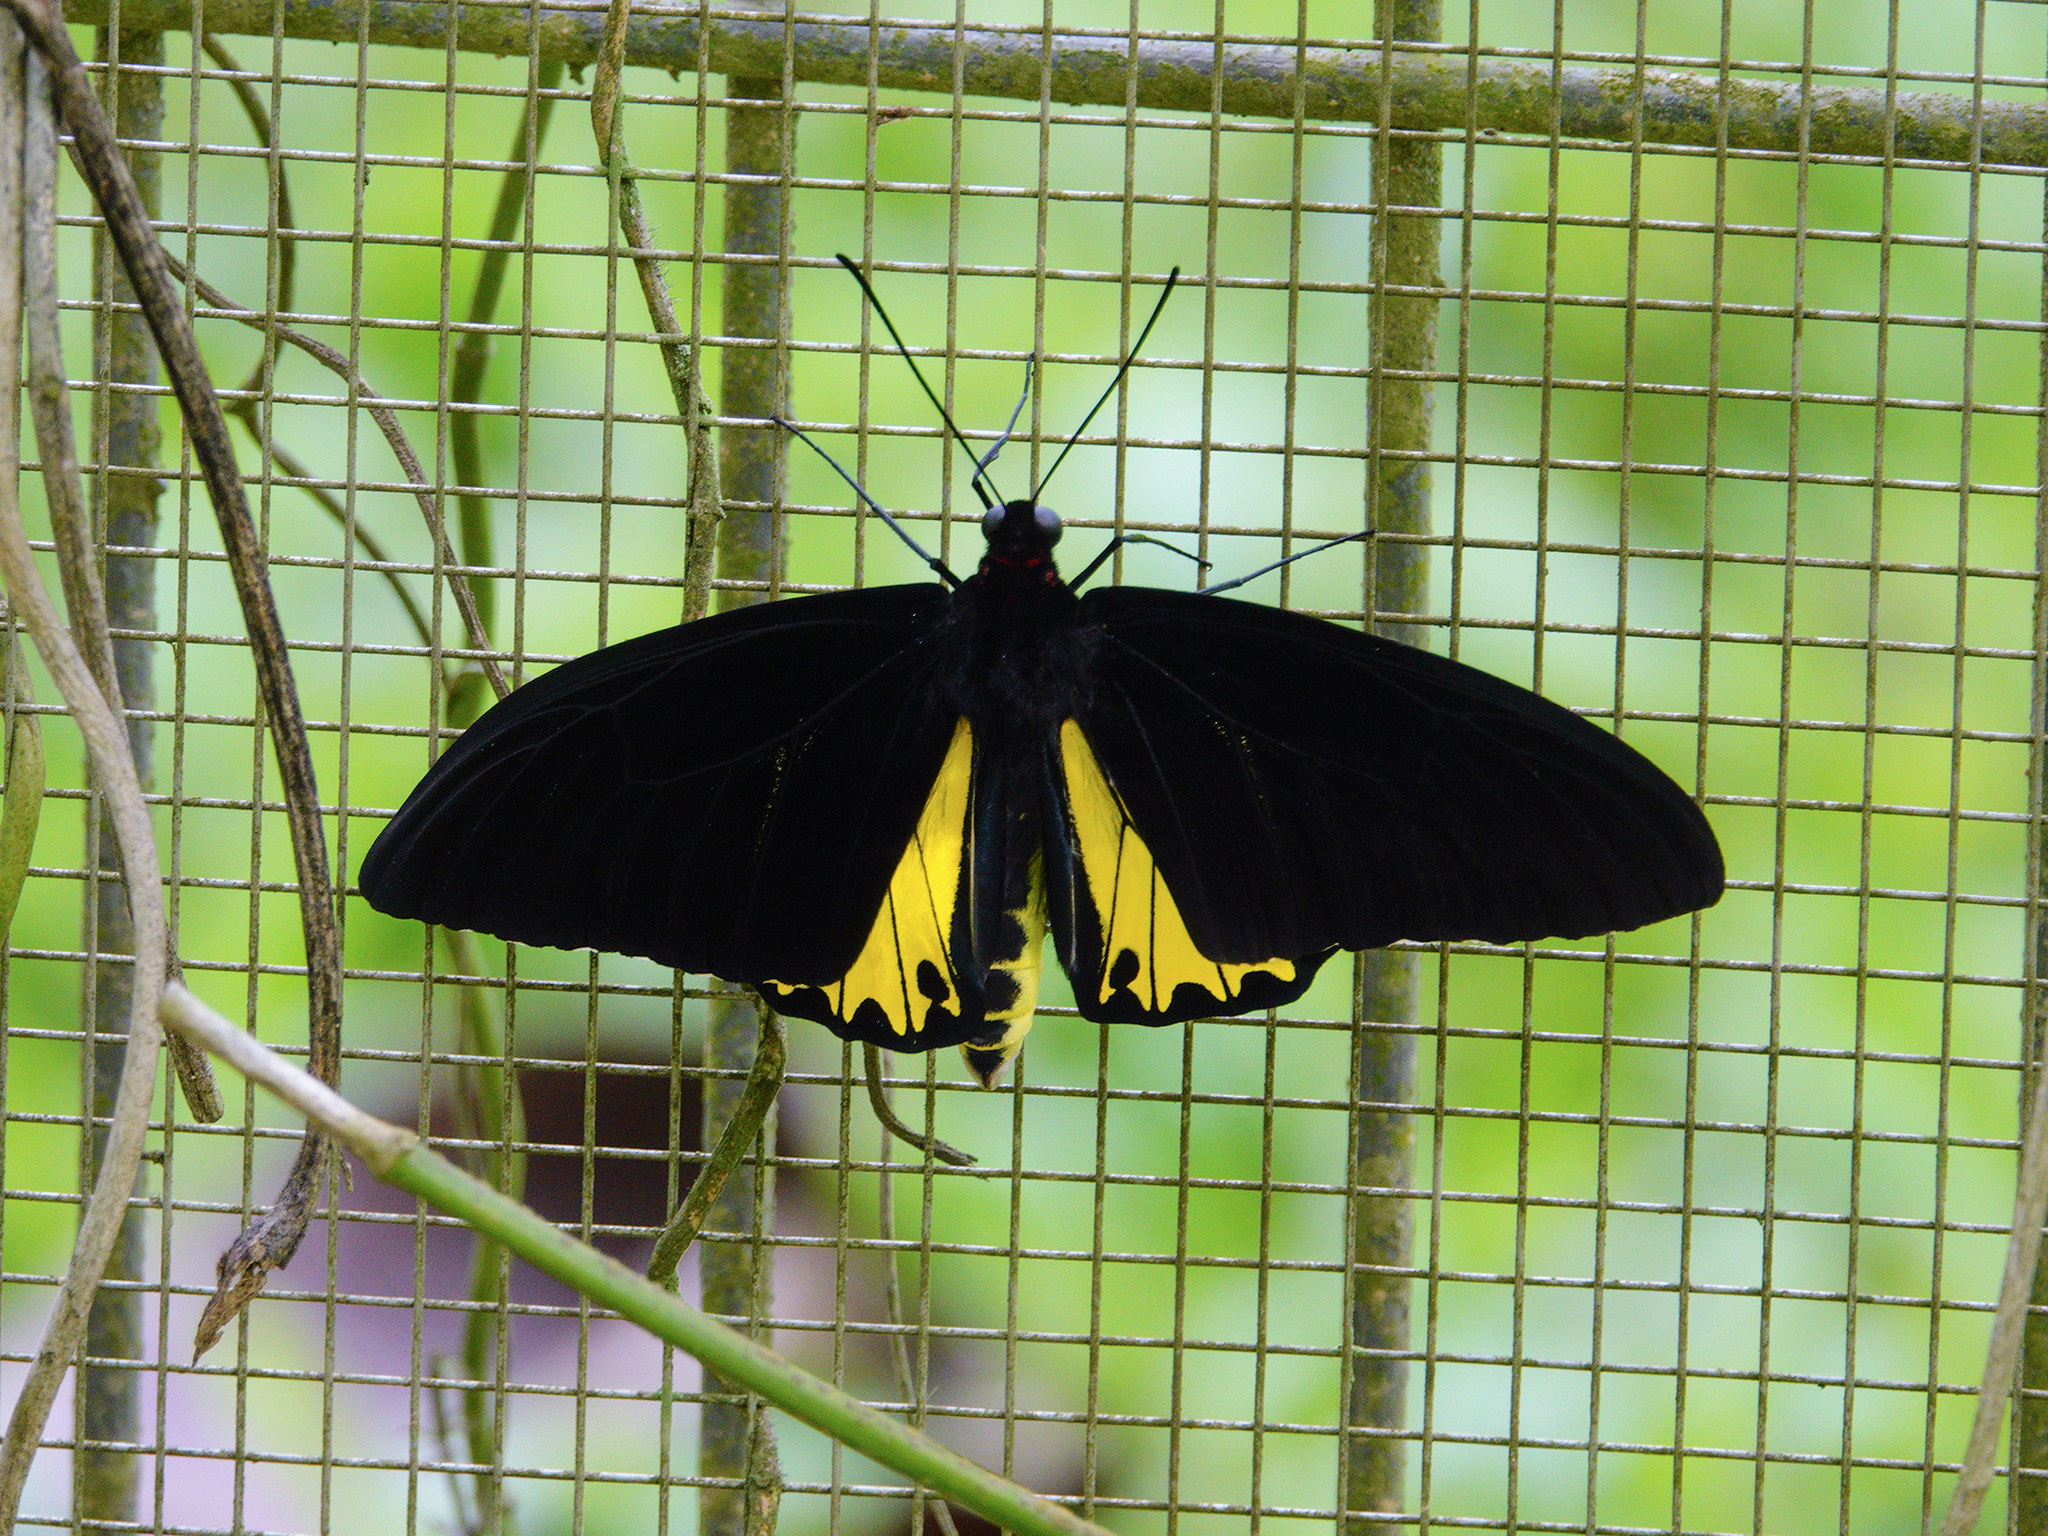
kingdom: Animalia
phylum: Arthropoda
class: Insecta
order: Lepidoptera
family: Papilionidae
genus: Troides
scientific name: Troides helena
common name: Common birdwing
